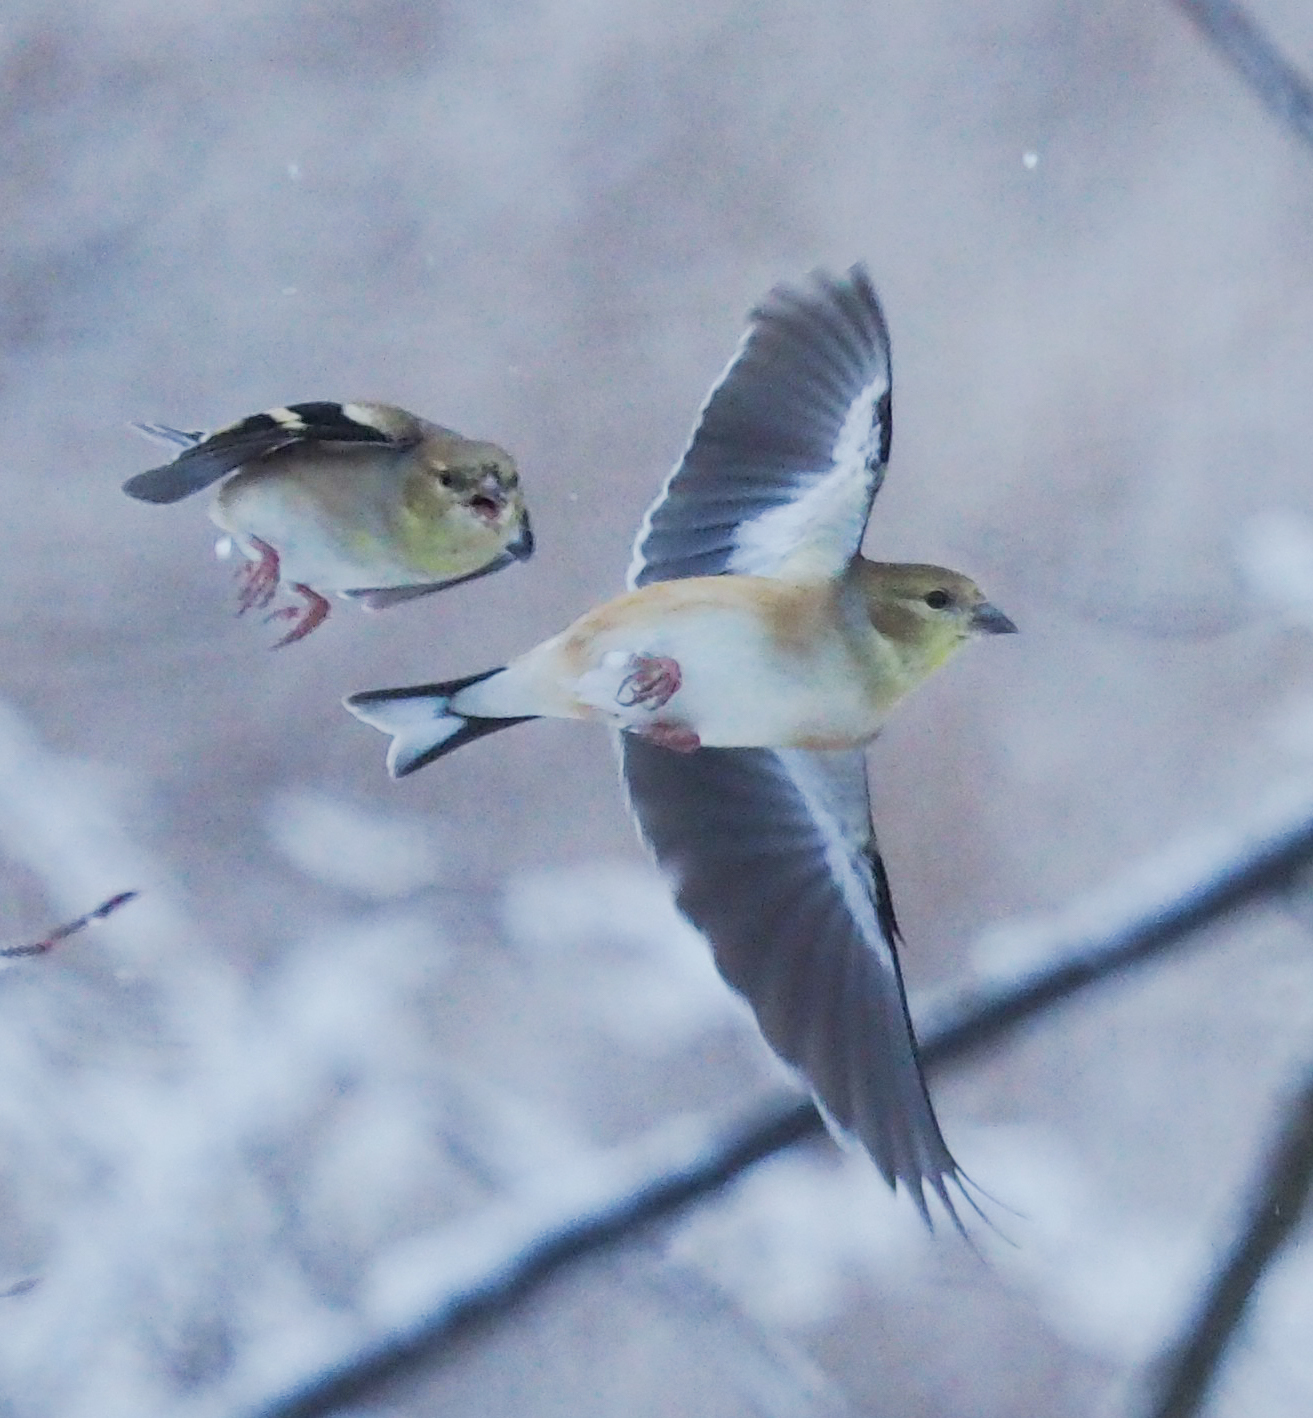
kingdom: Animalia
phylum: Chordata
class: Aves
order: Passeriformes
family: Fringillidae
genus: Spinus
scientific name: Spinus tristis
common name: American goldfinch
